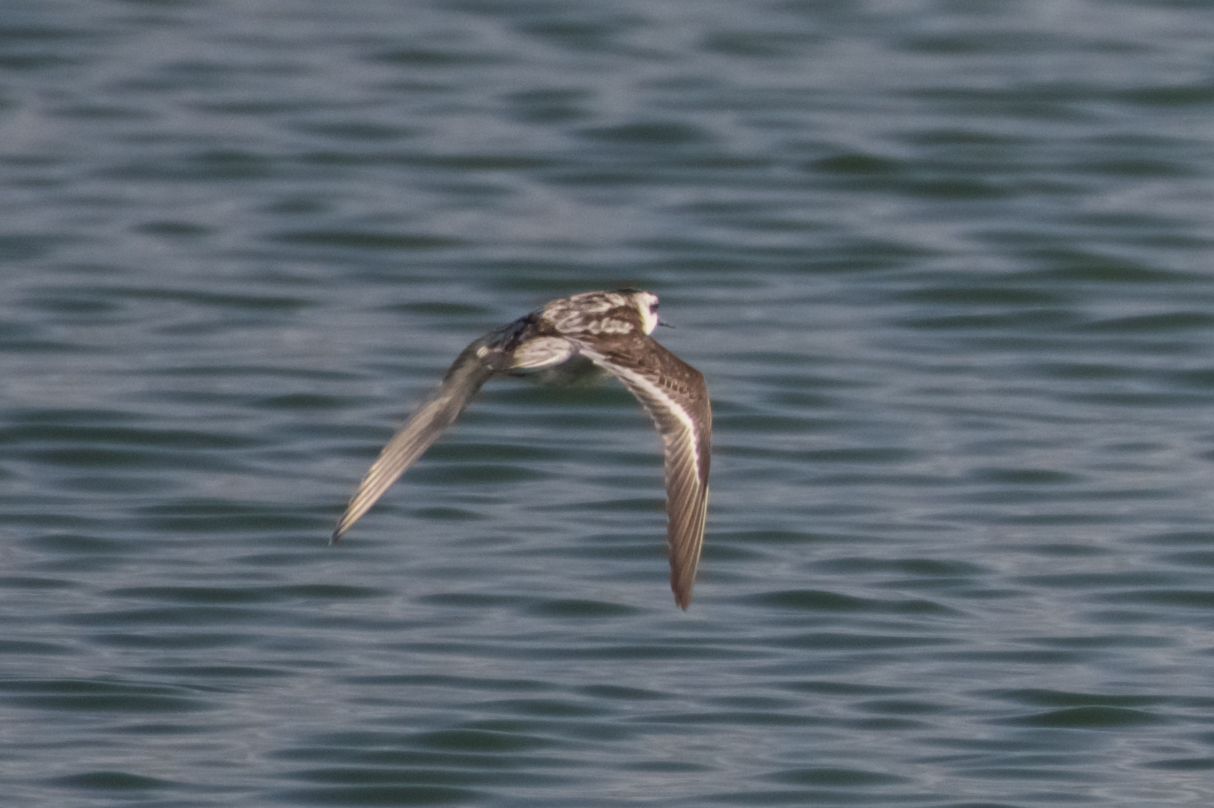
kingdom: Animalia
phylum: Chordata
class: Aves
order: Charadriiformes
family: Scolopacidae
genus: Phalaropus
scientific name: Phalaropus lobatus
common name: Red-necked phalarope
